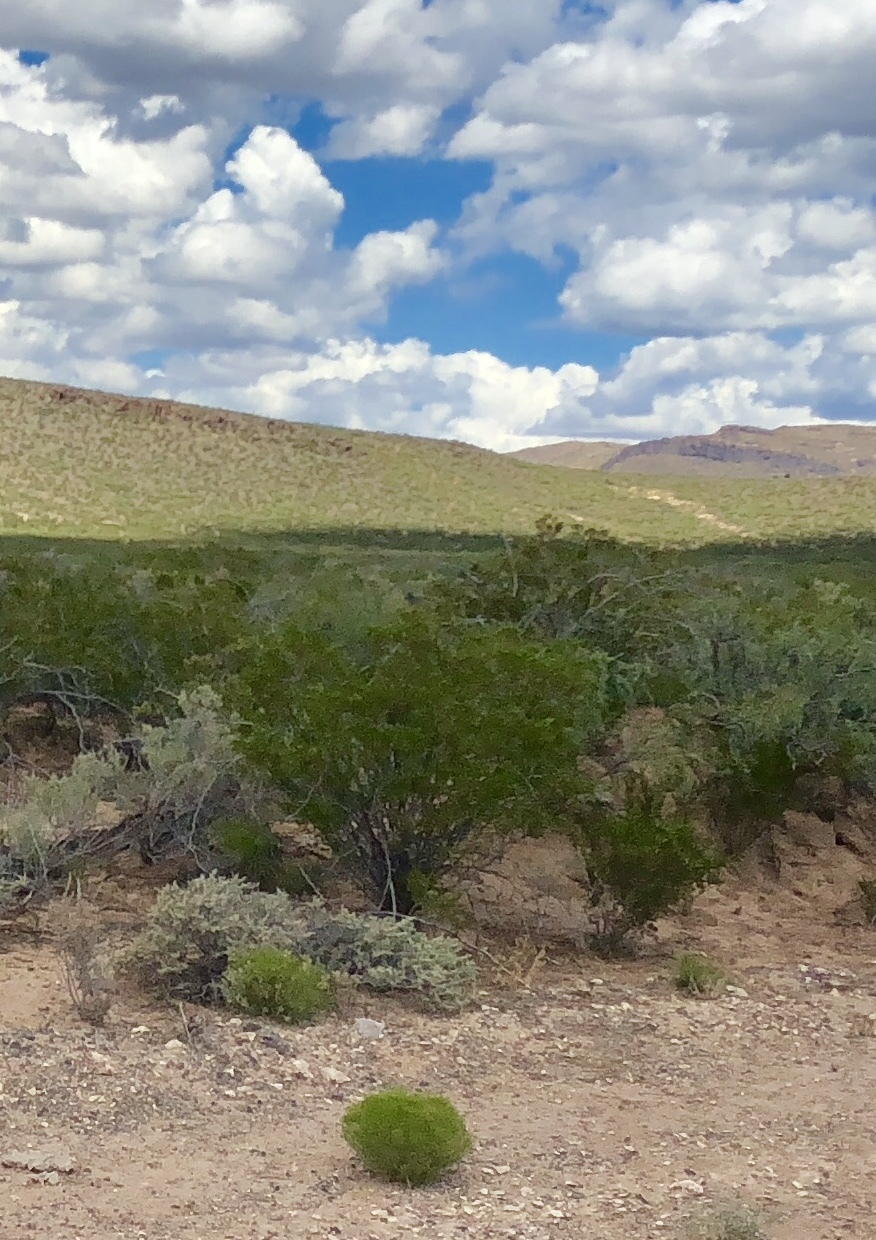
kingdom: Plantae
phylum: Tracheophyta
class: Magnoliopsida
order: Zygophyllales
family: Zygophyllaceae
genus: Larrea
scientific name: Larrea tridentata
